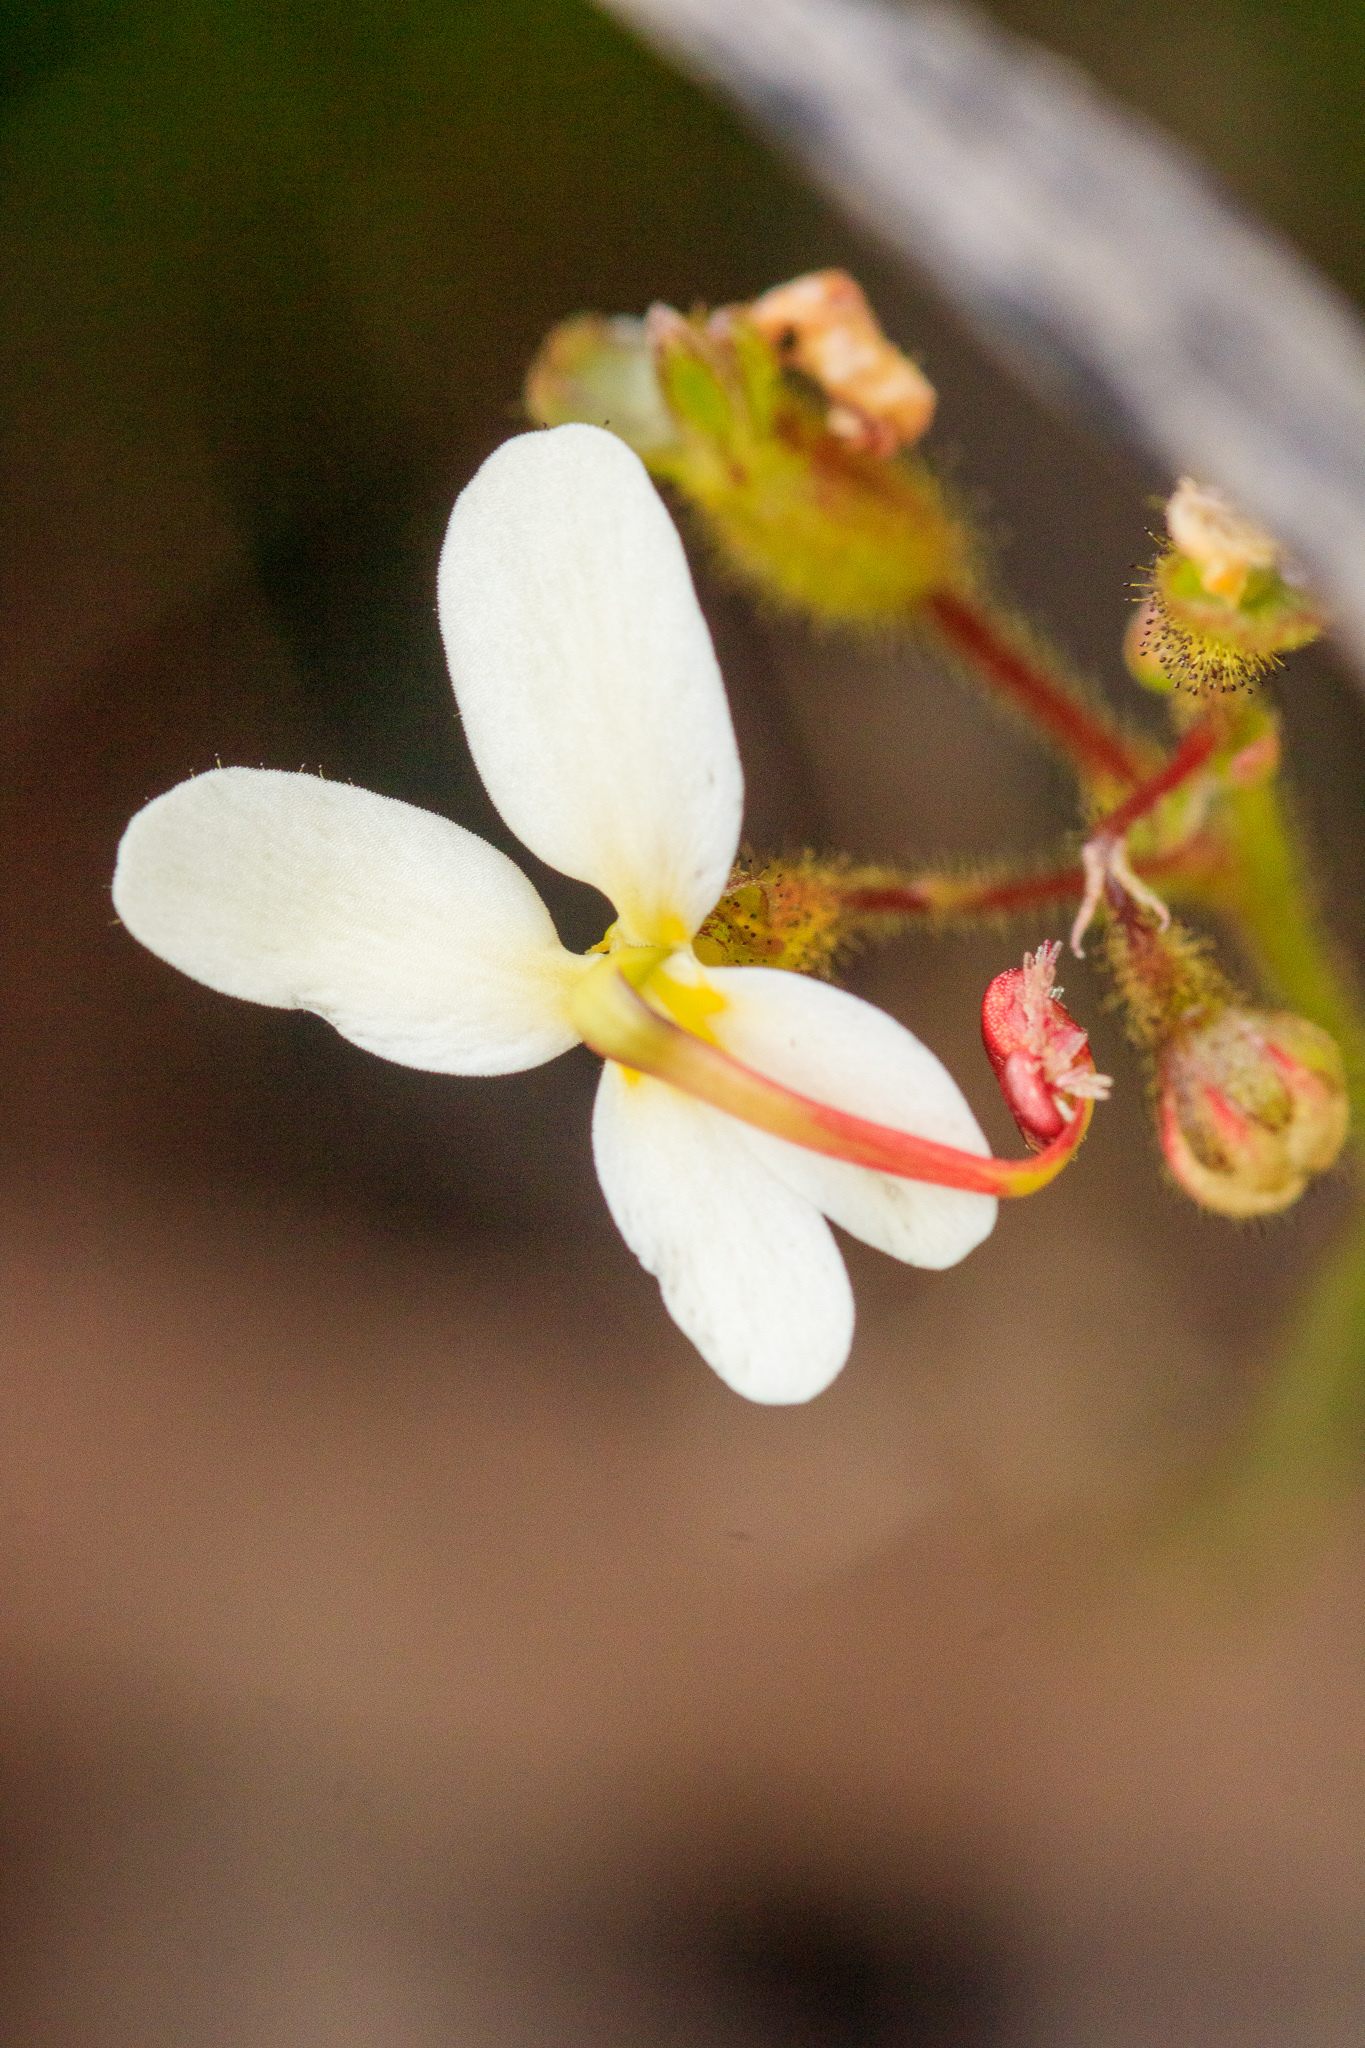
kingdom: Plantae
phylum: Tracheophyta
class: Magnoliopsida
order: Asterales
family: Stylidiaceae
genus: Stylidium
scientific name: Stylidium piliferum
